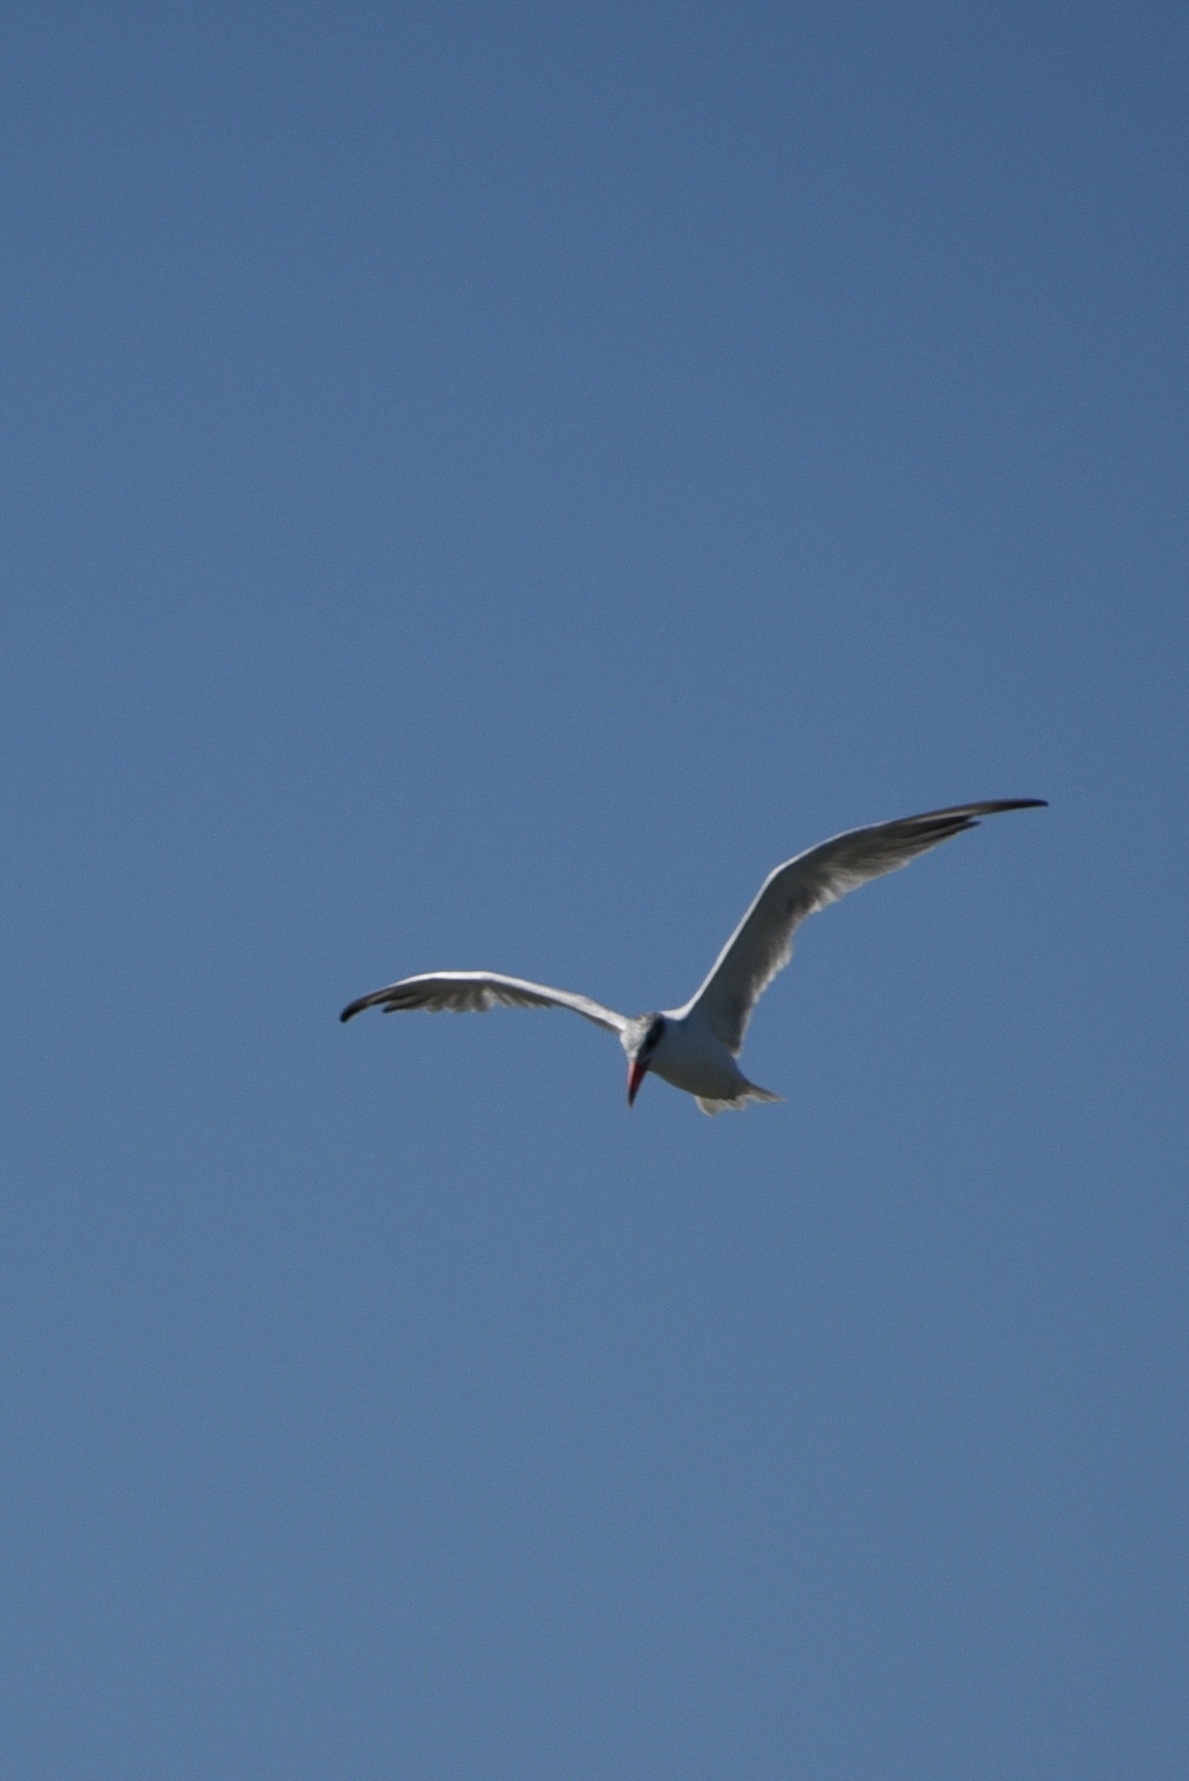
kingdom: Animalia
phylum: Chordata
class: Aves
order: Charadriiformes
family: Laridae
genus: Hydroprogne
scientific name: Hydroprogne caspia
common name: Caspian tern
